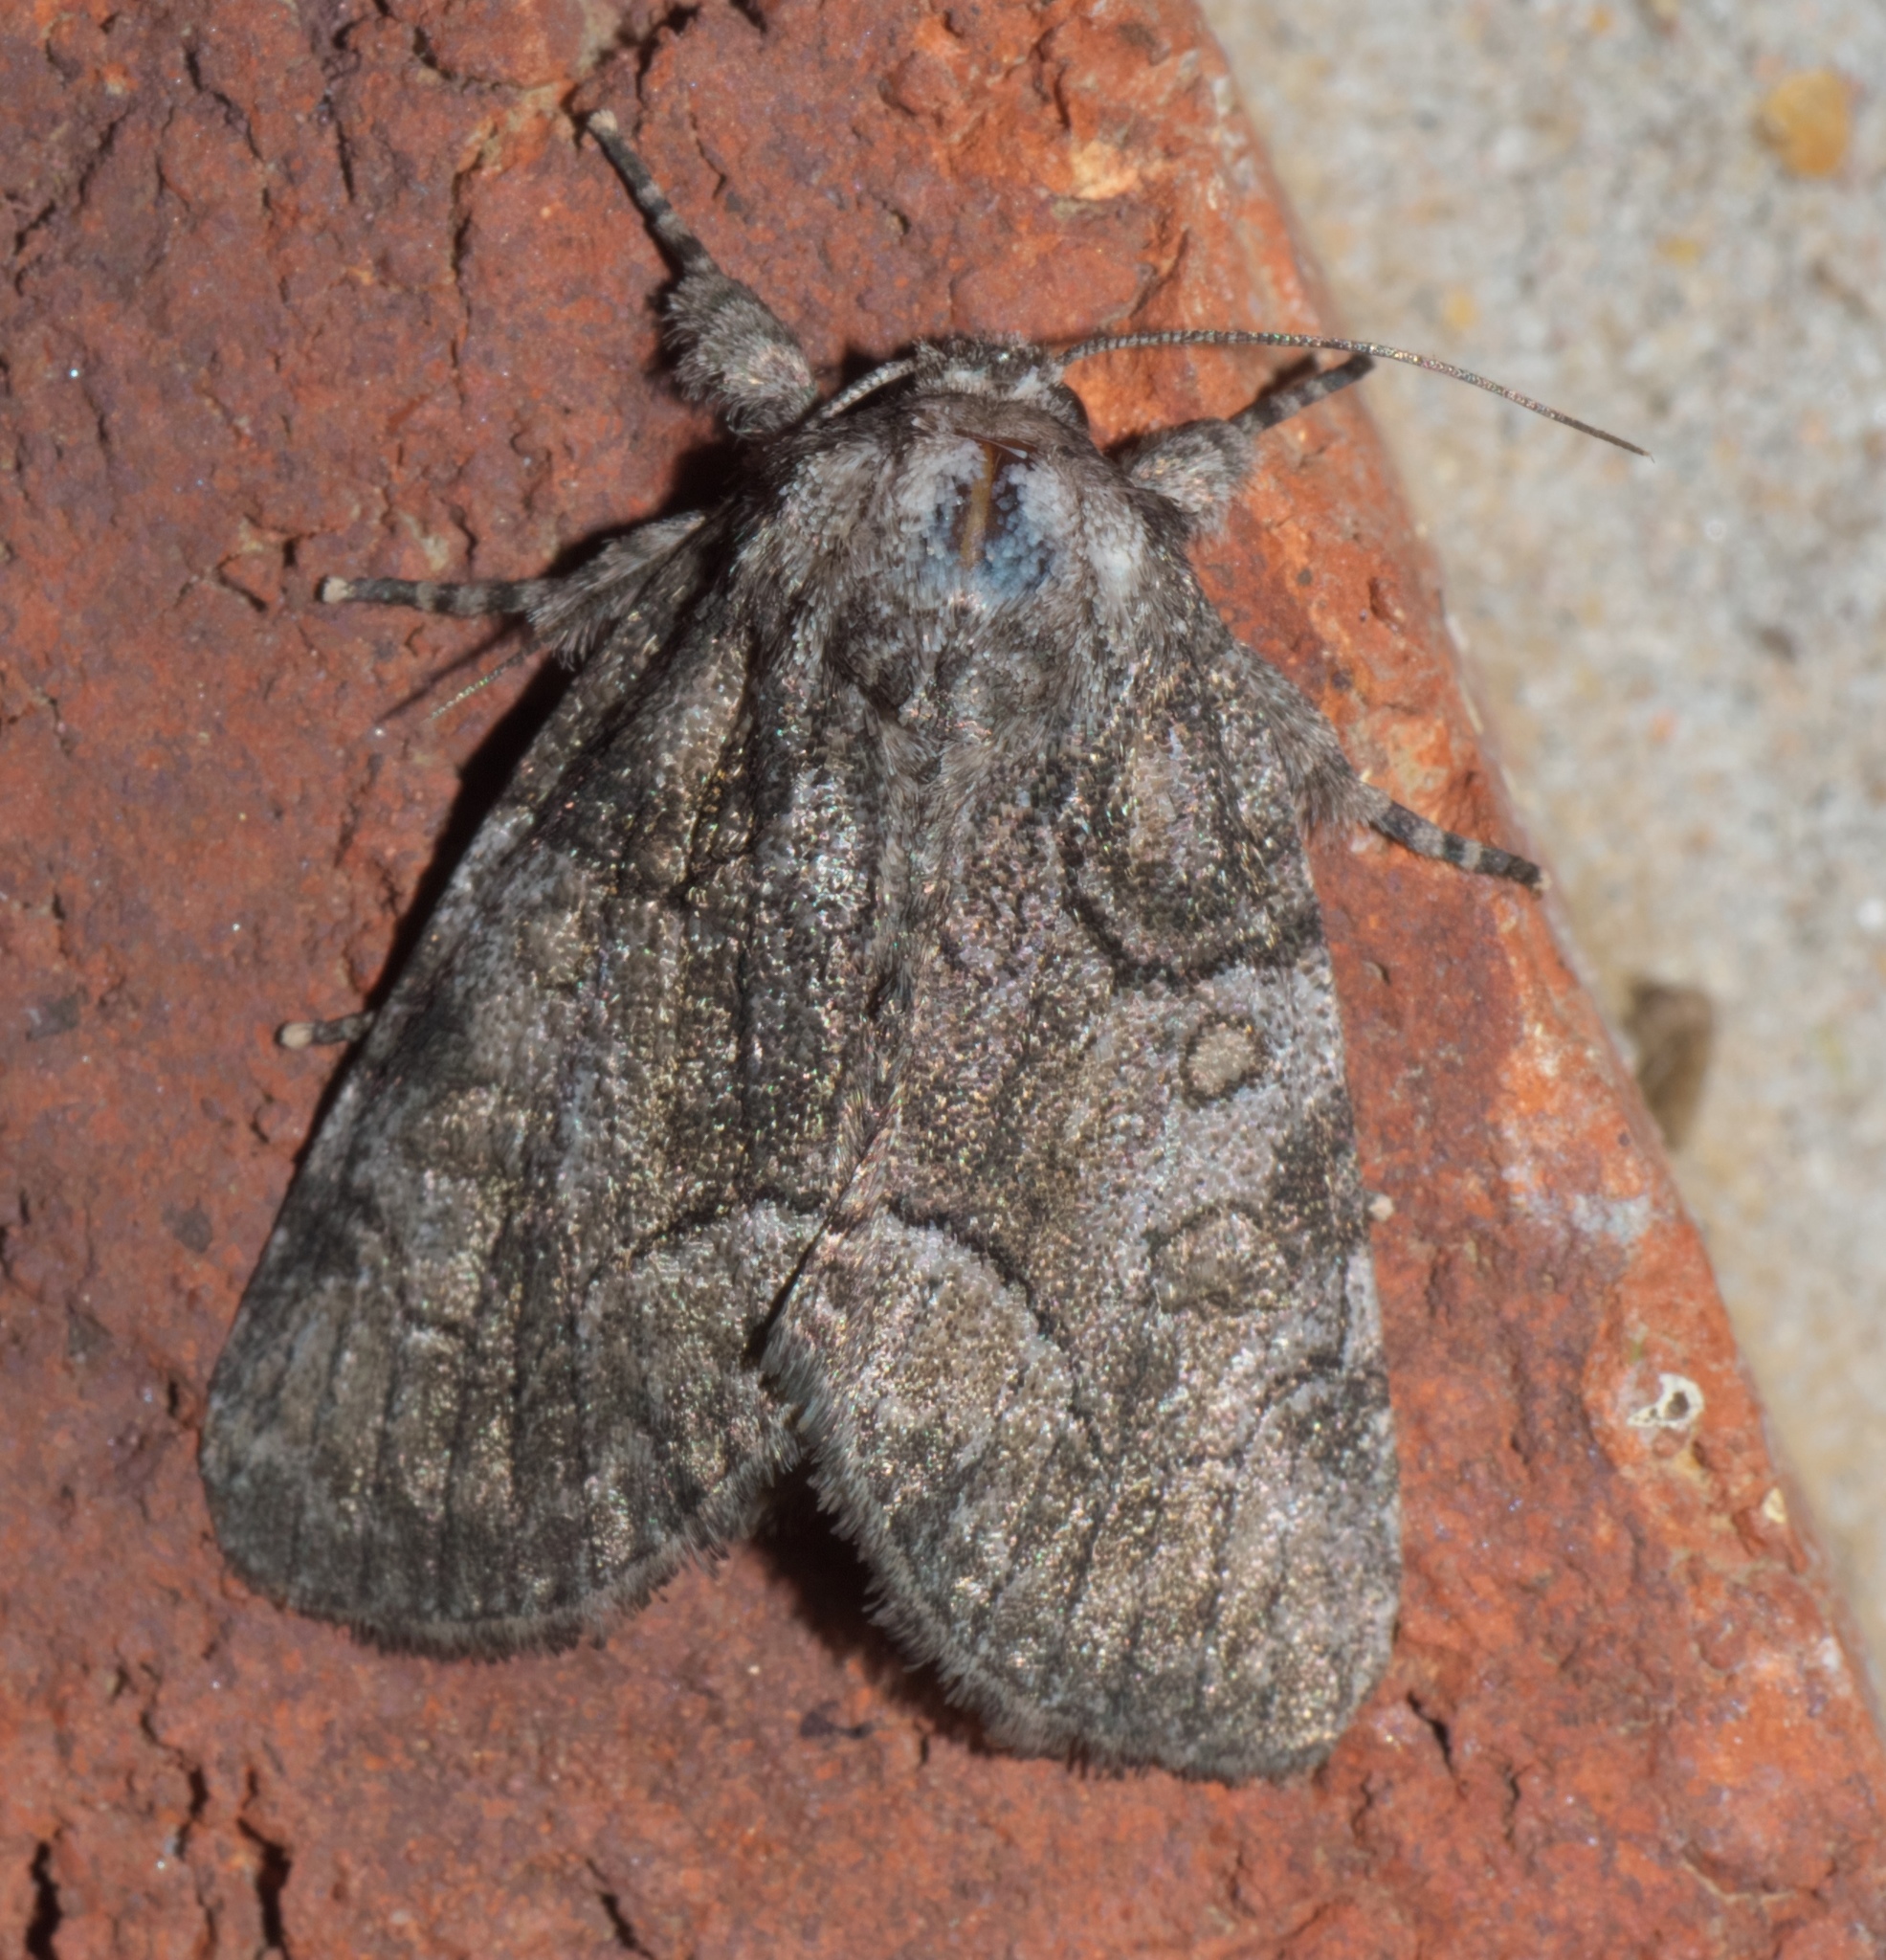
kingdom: Animalia
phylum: Arthropoda
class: Insecta
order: Lepidoptera
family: Noctuidae
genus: Raphia
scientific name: Raphia frater
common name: Brother
